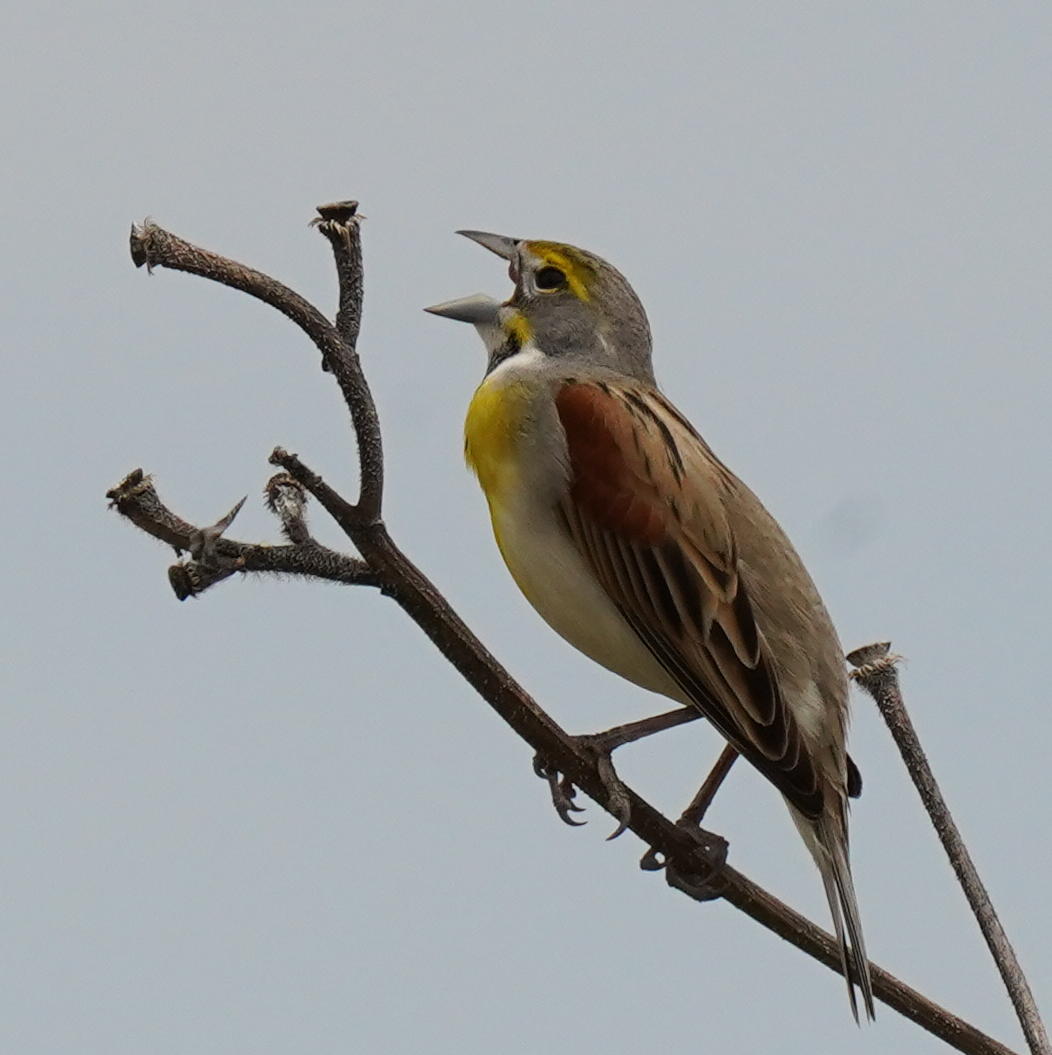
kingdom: Animalia
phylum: Chordata
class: Aves
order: Passeriformes
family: Cardinalidae
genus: Spiza
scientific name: Spiza americana
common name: Dickcissel
